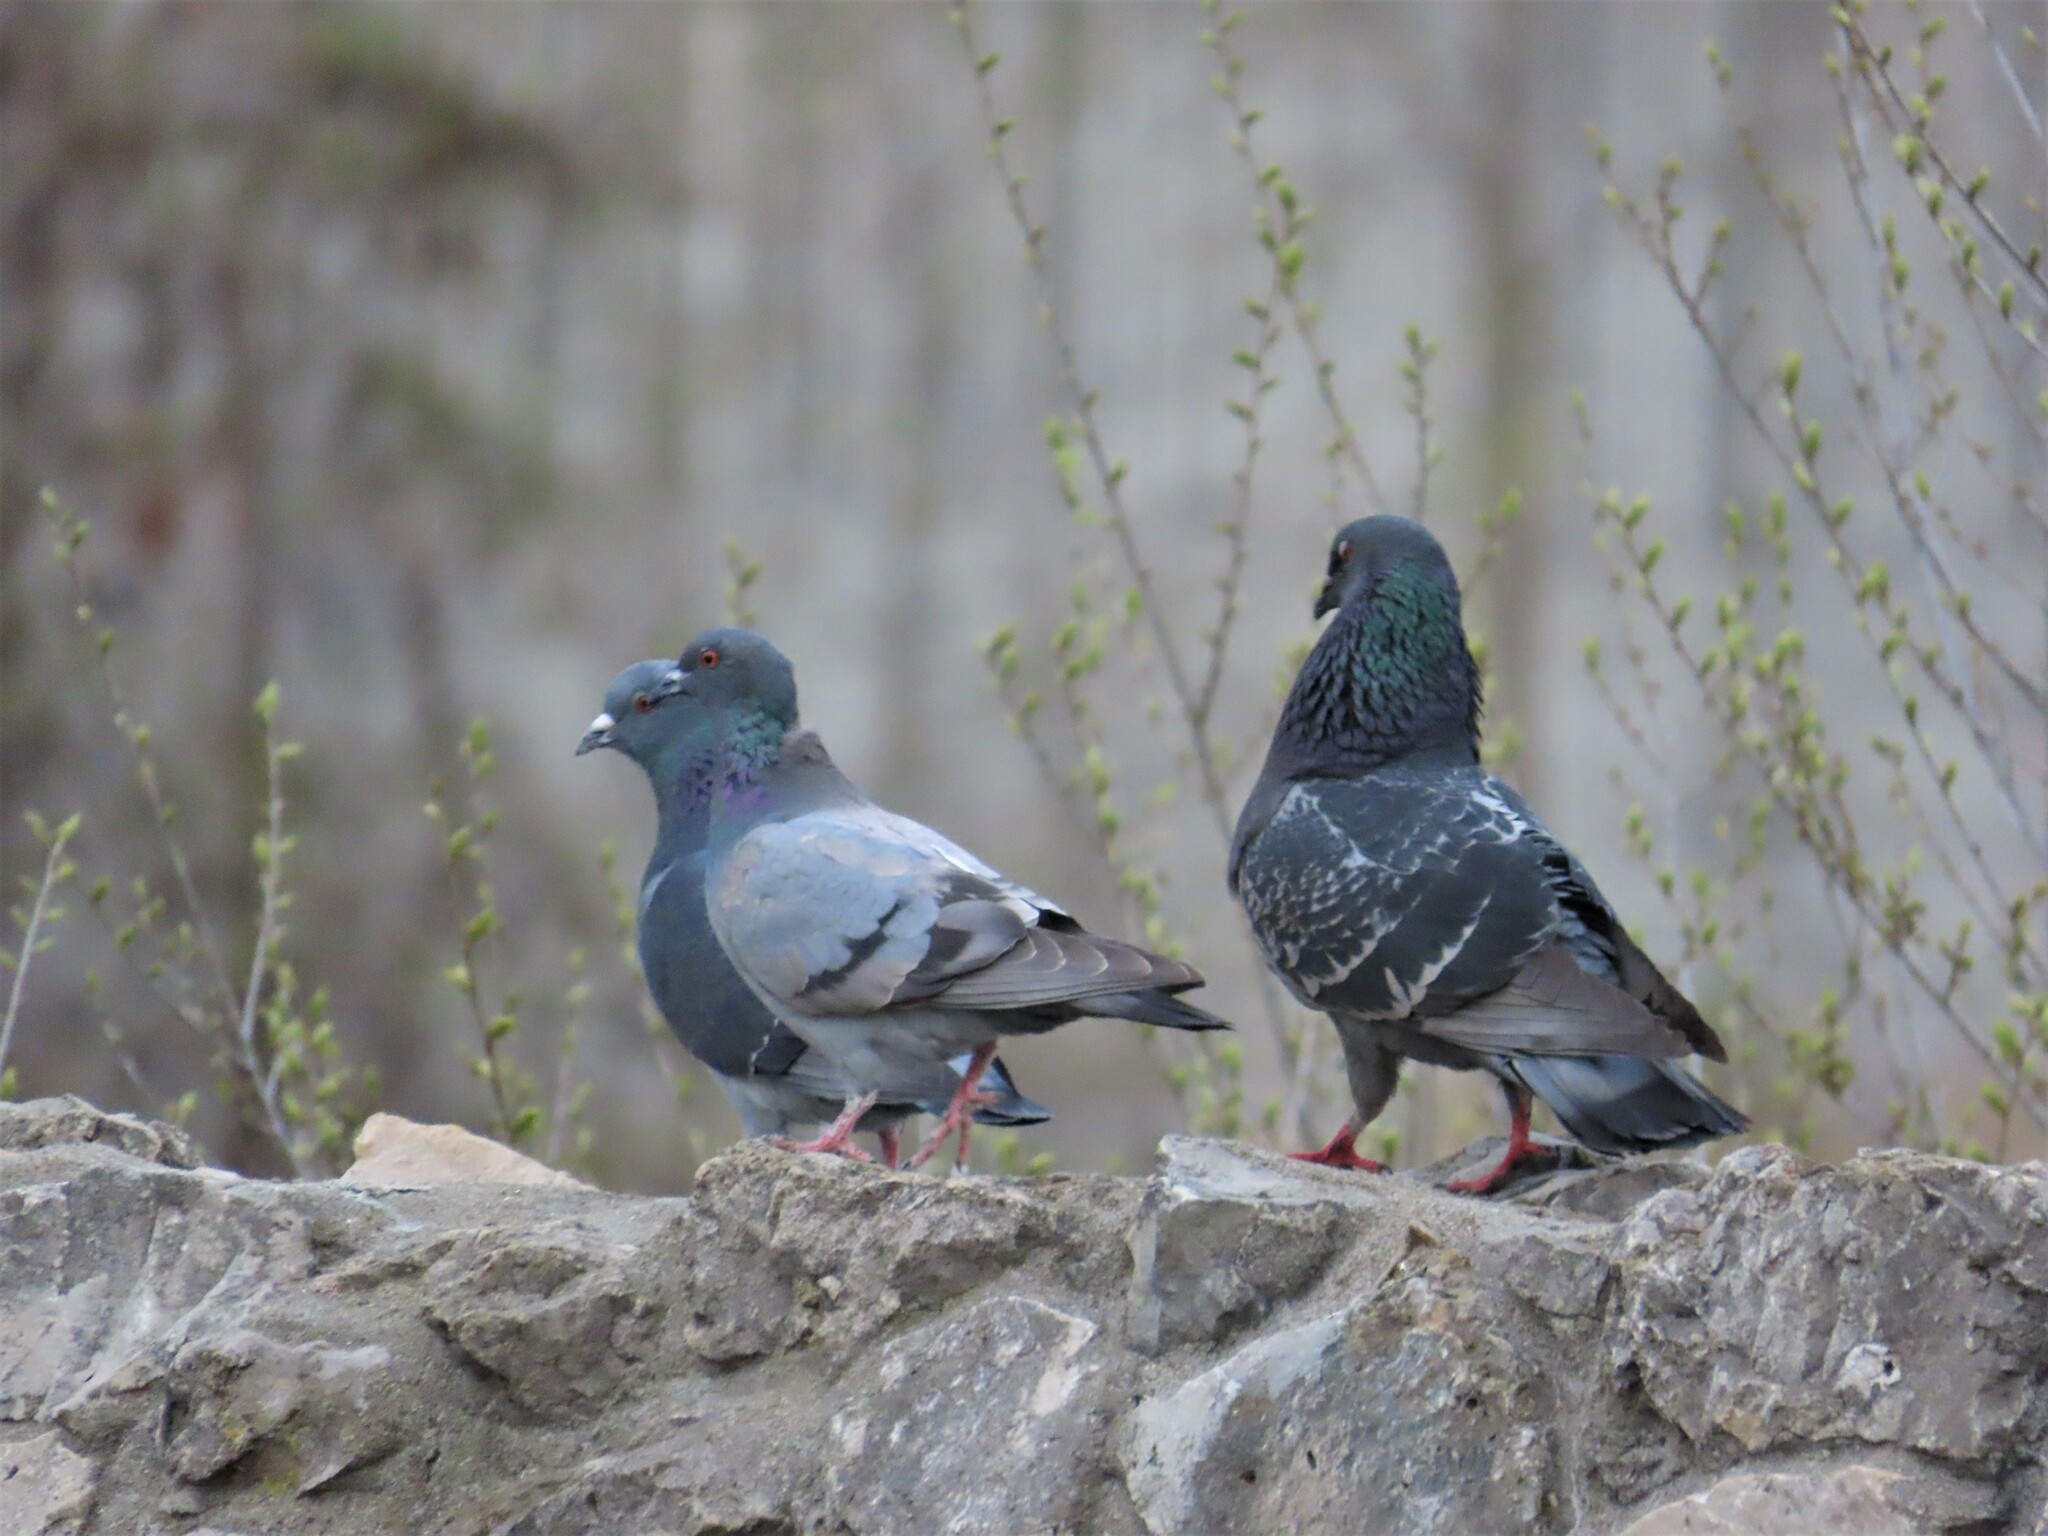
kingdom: Animalia
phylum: Chordata
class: Aves
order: Columbiformes
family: Columbidae
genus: Columba
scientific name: Columba livia
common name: Rock pigeon
